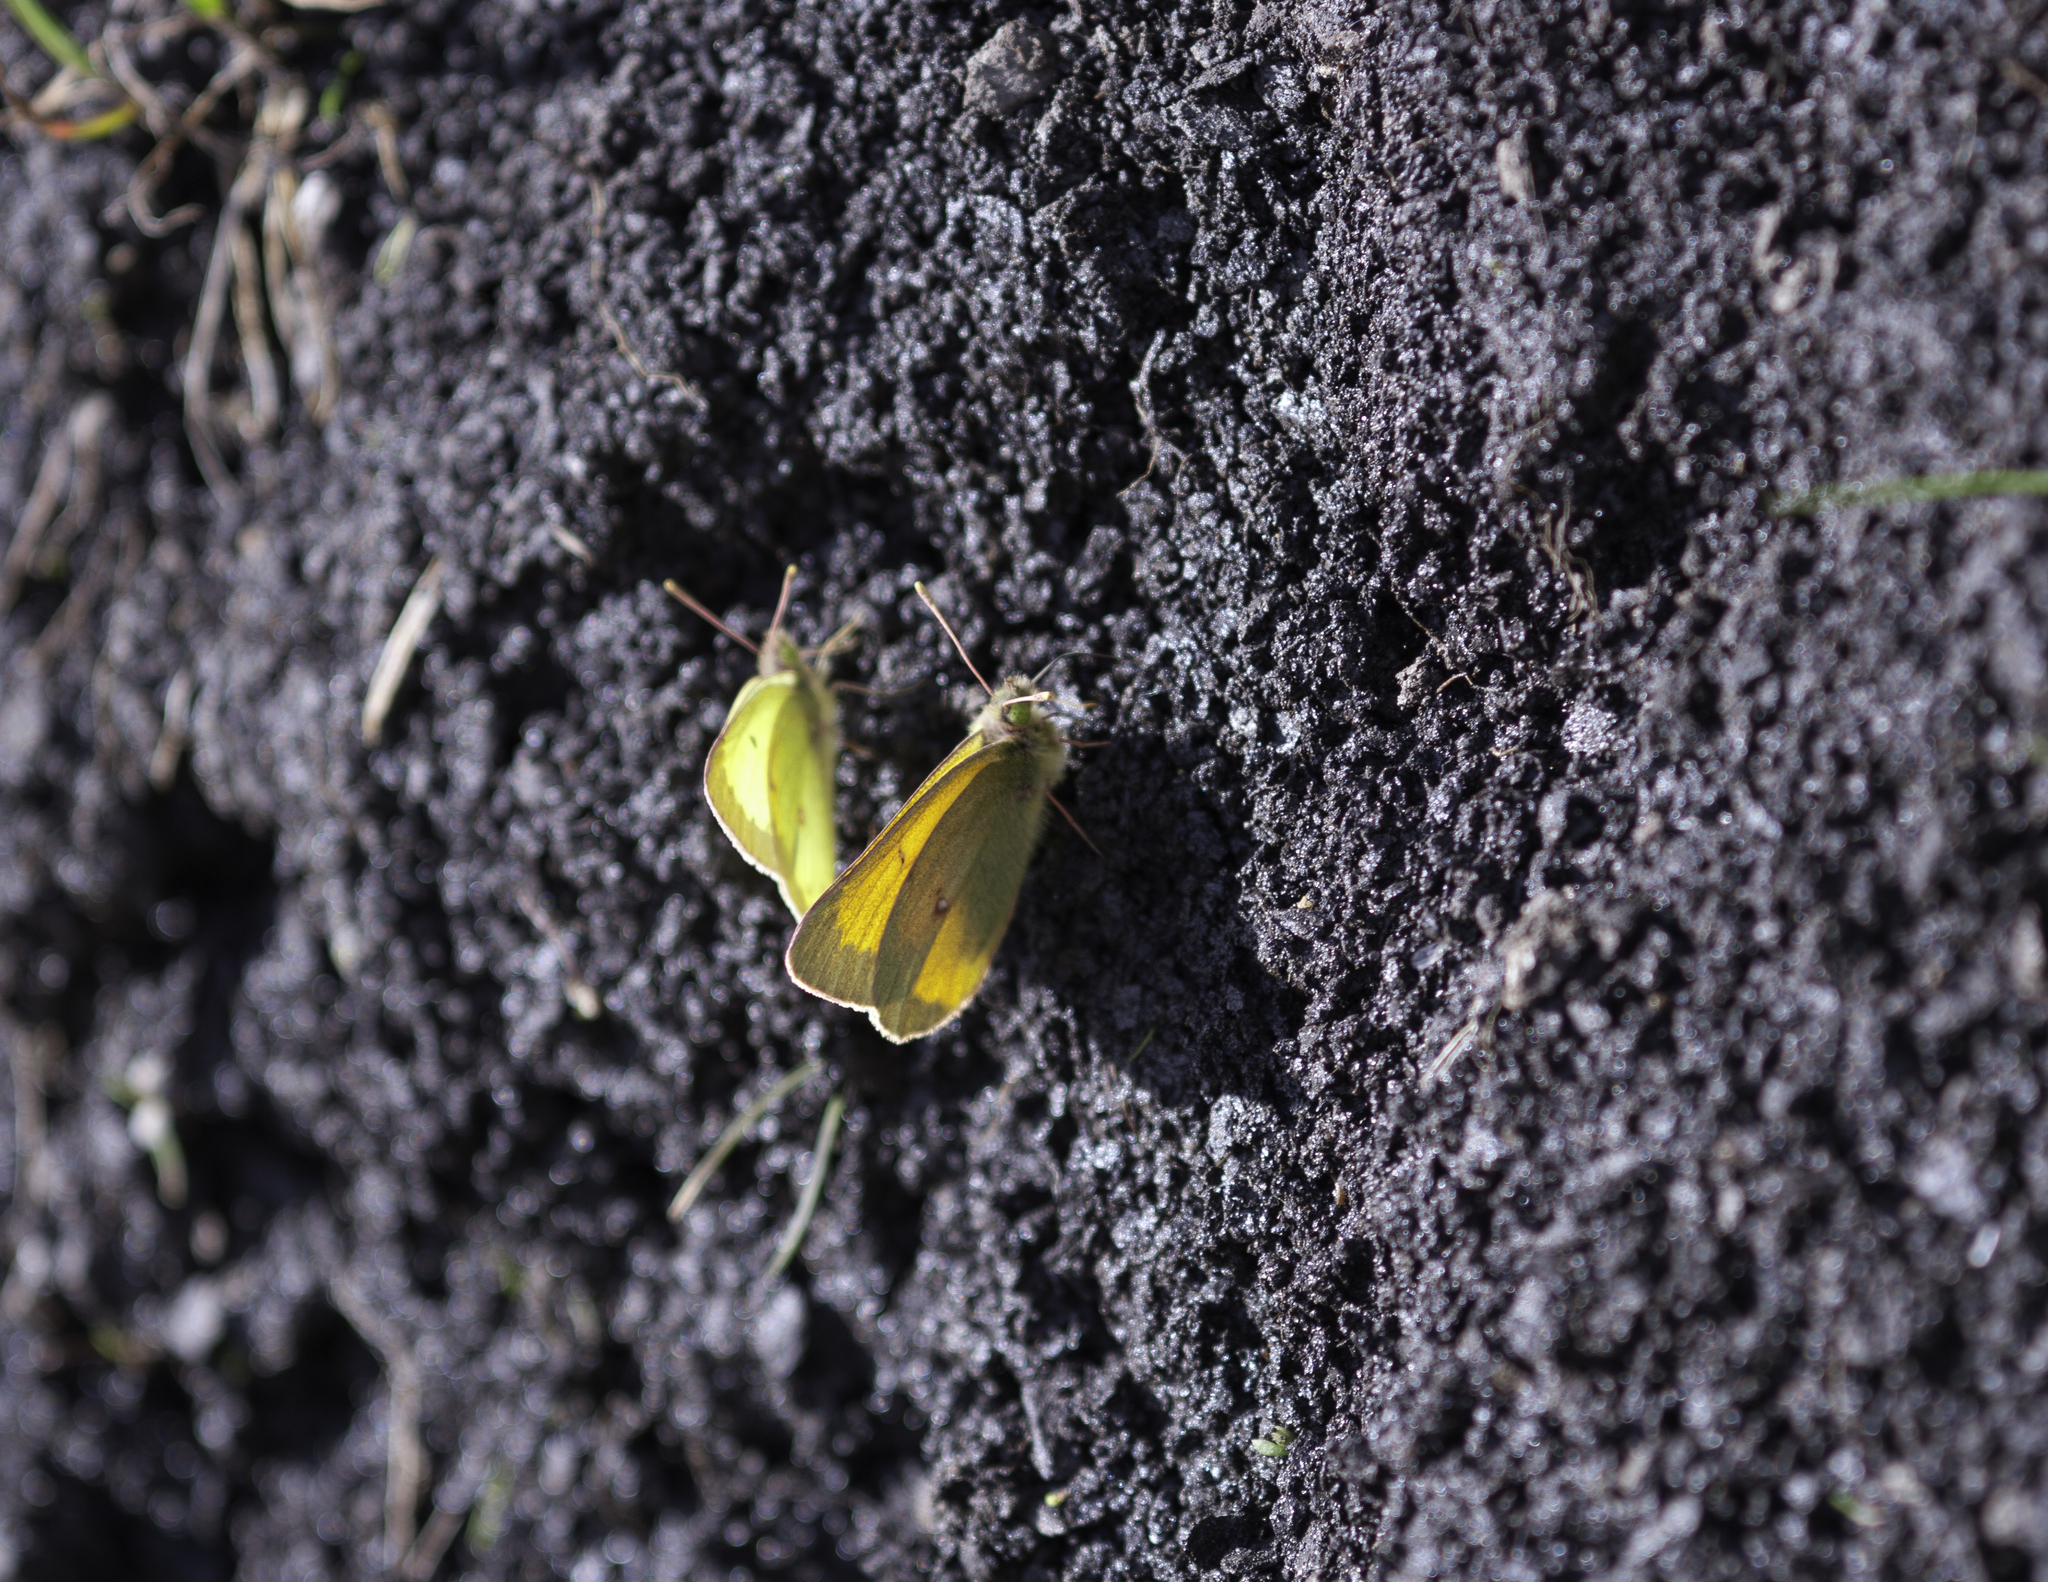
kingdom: Animalia
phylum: Arthropoda
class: Insecta
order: Lepidoptera
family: Pieridae
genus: Colias
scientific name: Colias
